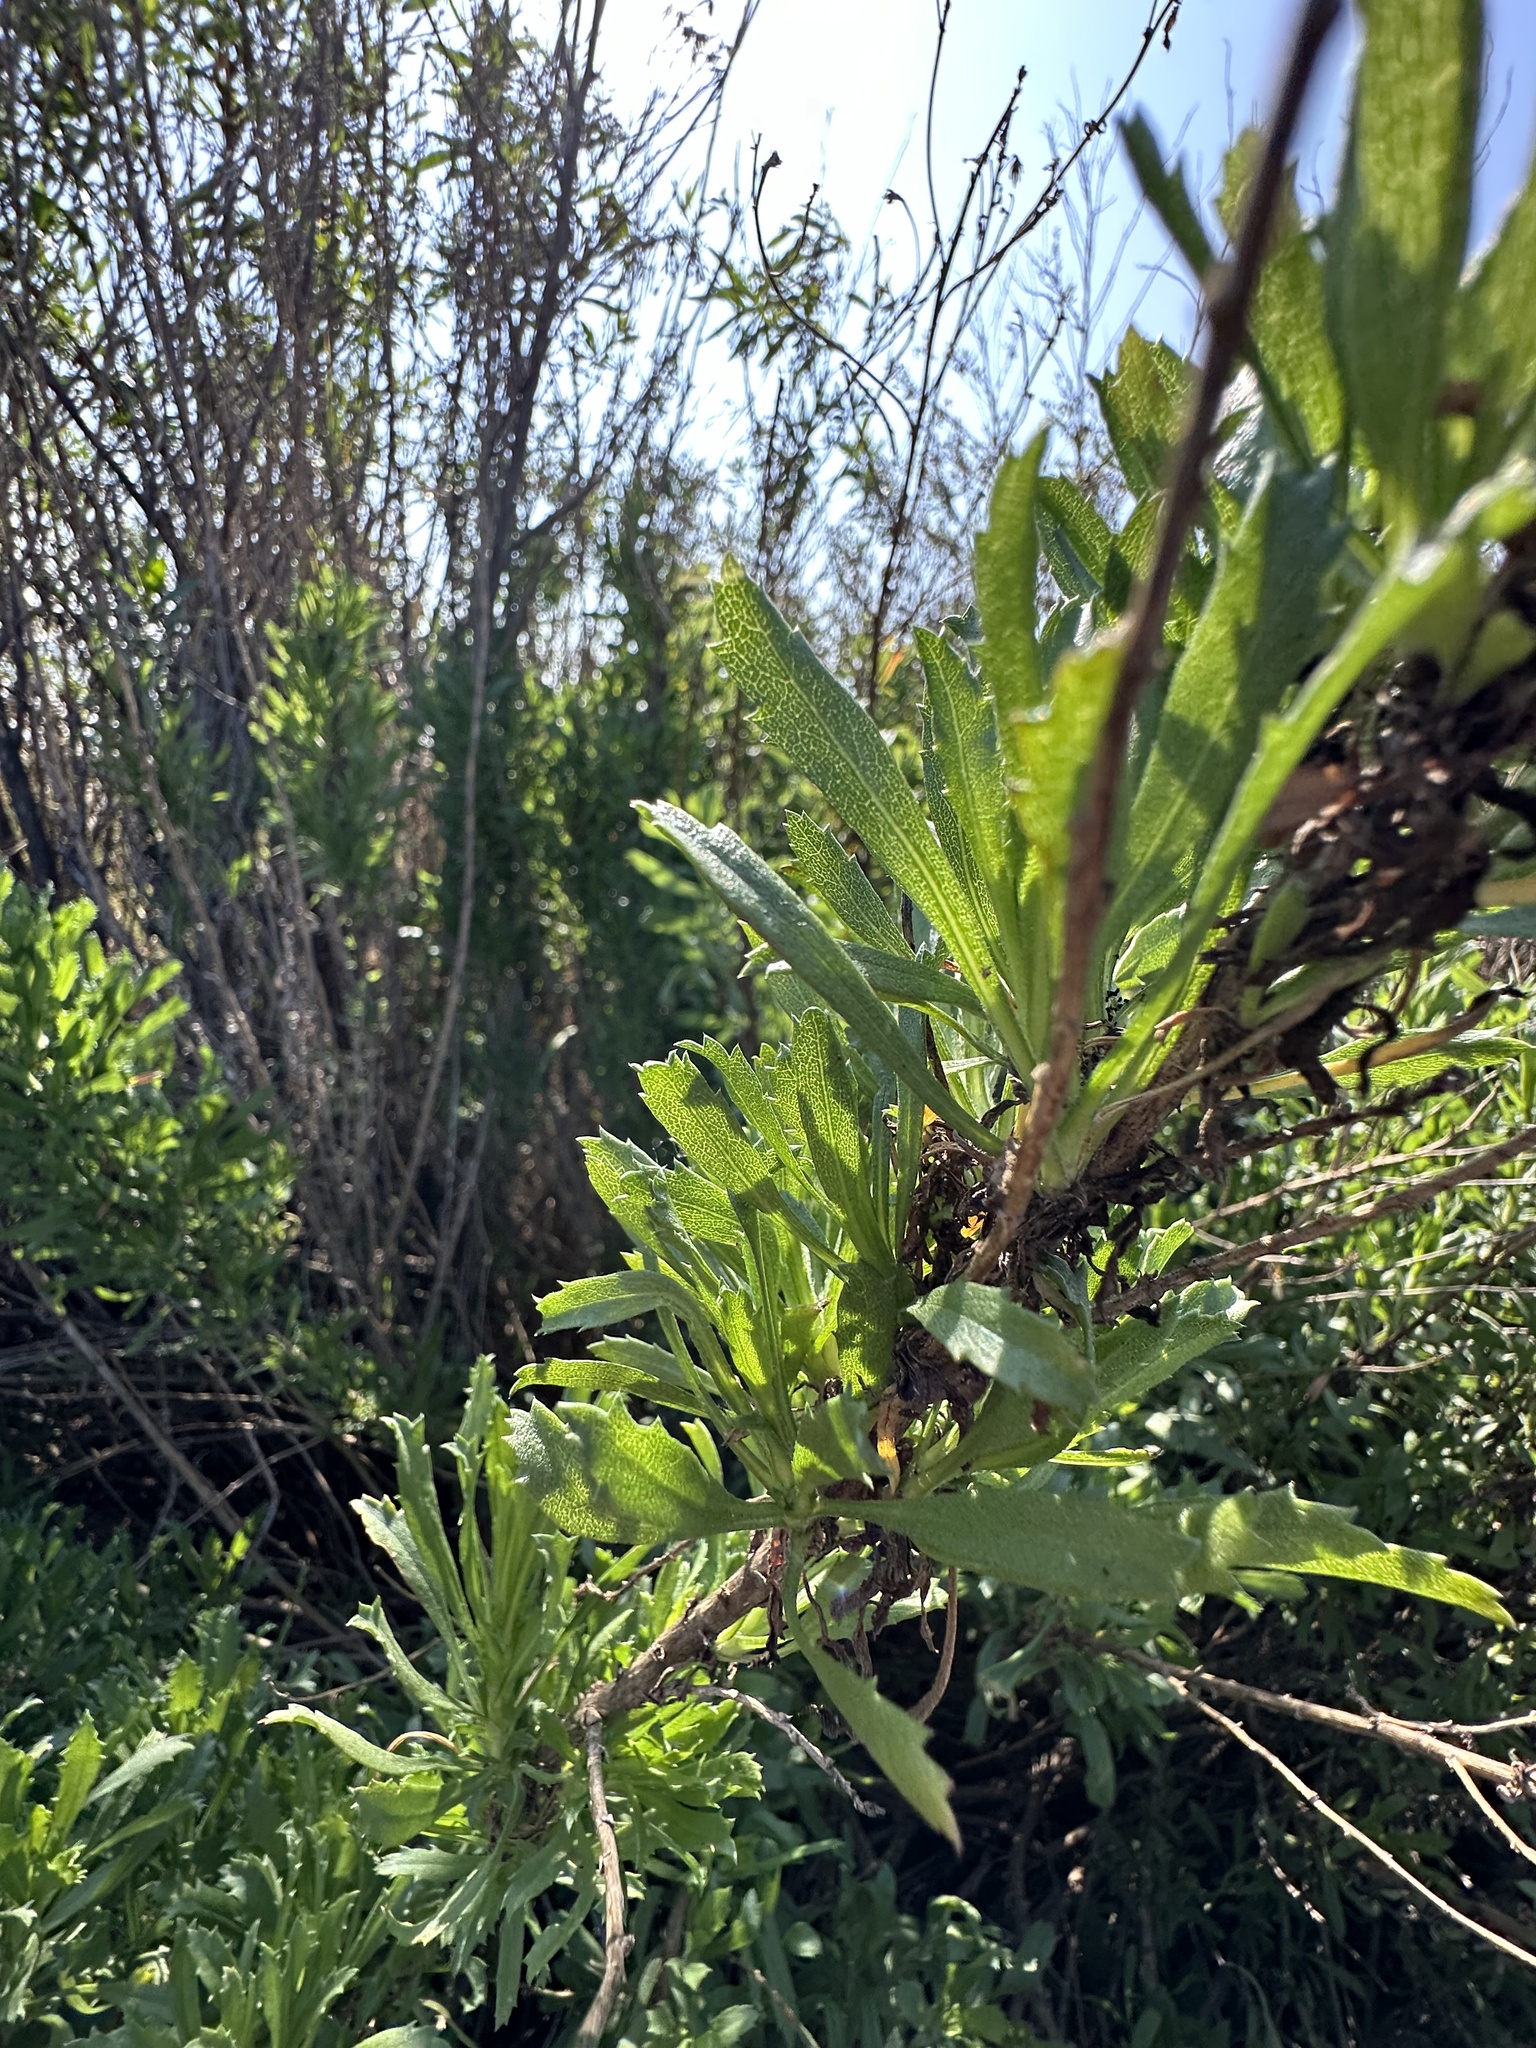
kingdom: Plantae
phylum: Tracheophyta
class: Magnoliopsida
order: Asterales
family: Asteraceae
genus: Isocoma
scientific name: Isocoma menziesii
